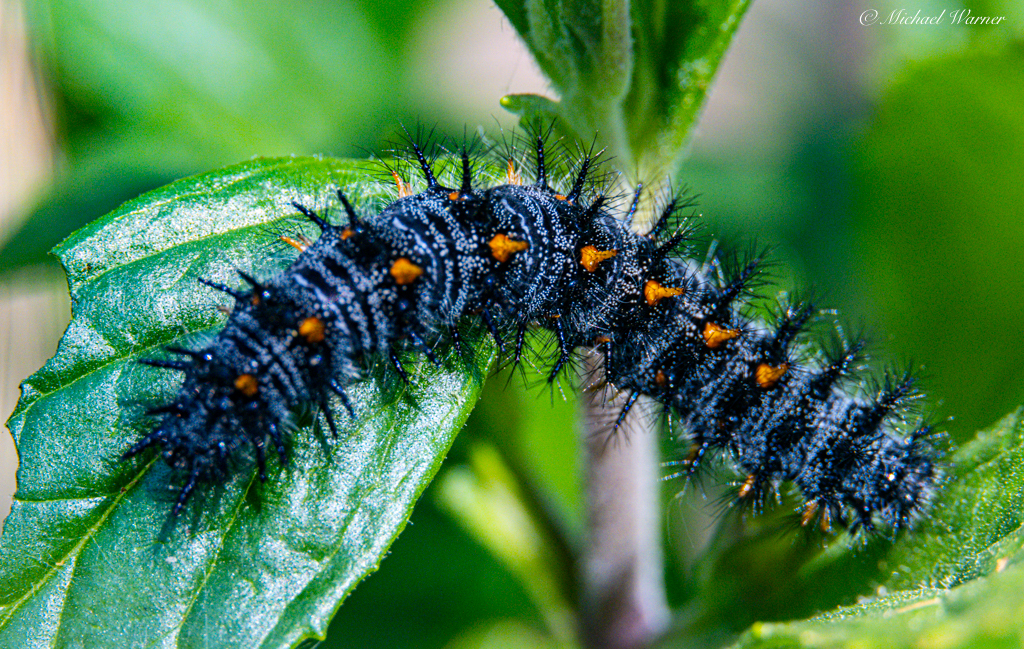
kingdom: Animalia
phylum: Arthropoda
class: Insecta
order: Lepidoptera
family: Nymphalidae
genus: Occidryas
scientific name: Occidryas chalcedona
